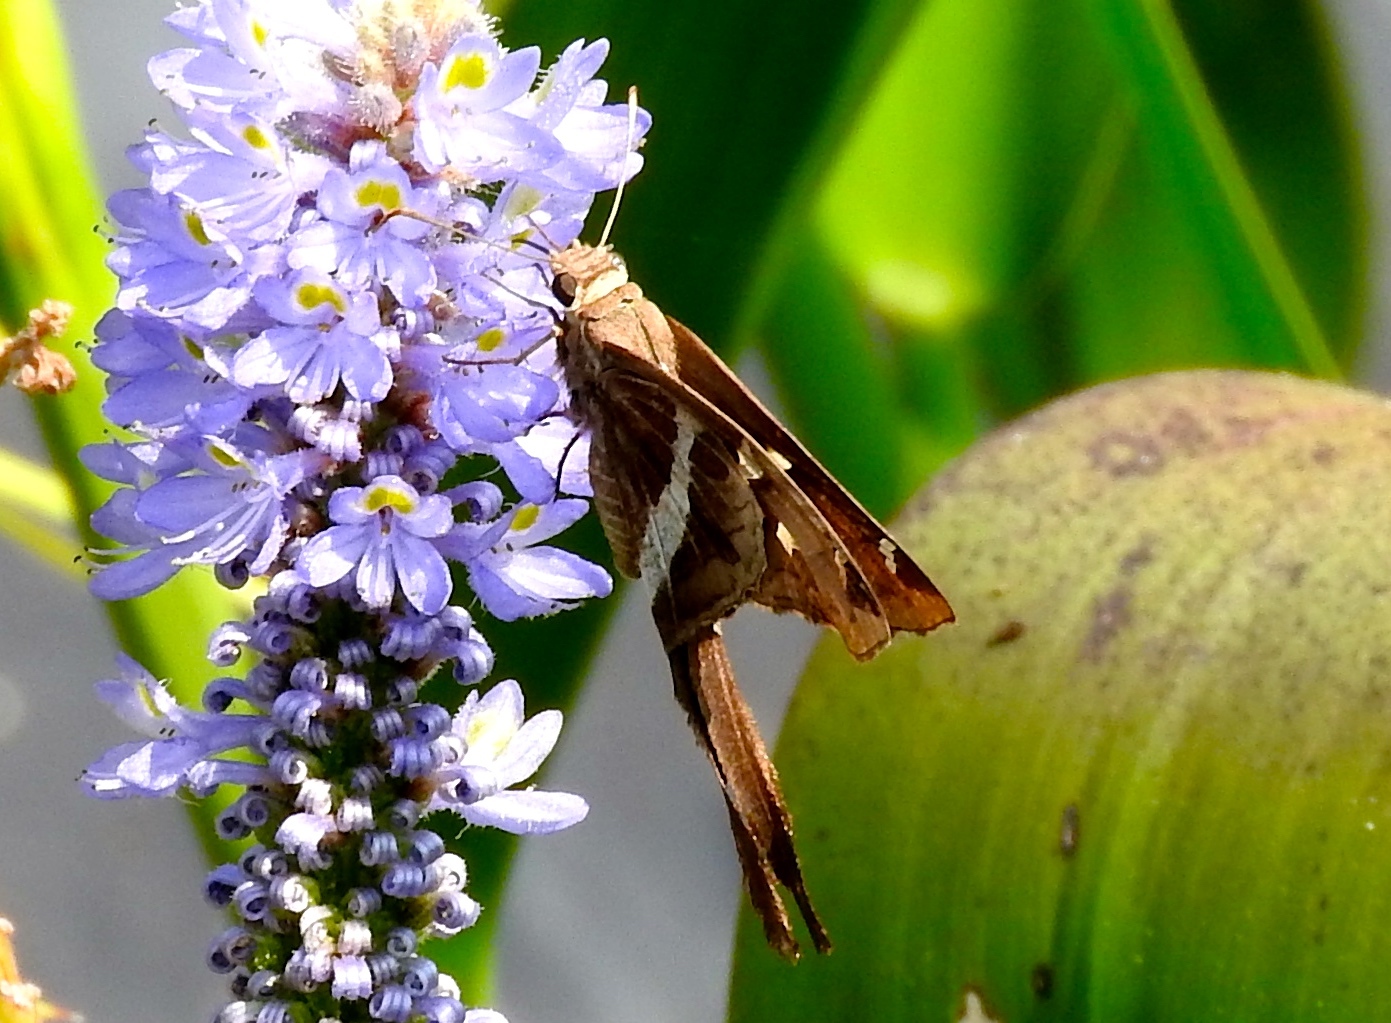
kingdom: Animalia
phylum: Arthropoda
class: Insecta
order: Lepidoptera
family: Hesperiidae
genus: Chioides
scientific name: Chioides catillus
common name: Silverbanded skipper
